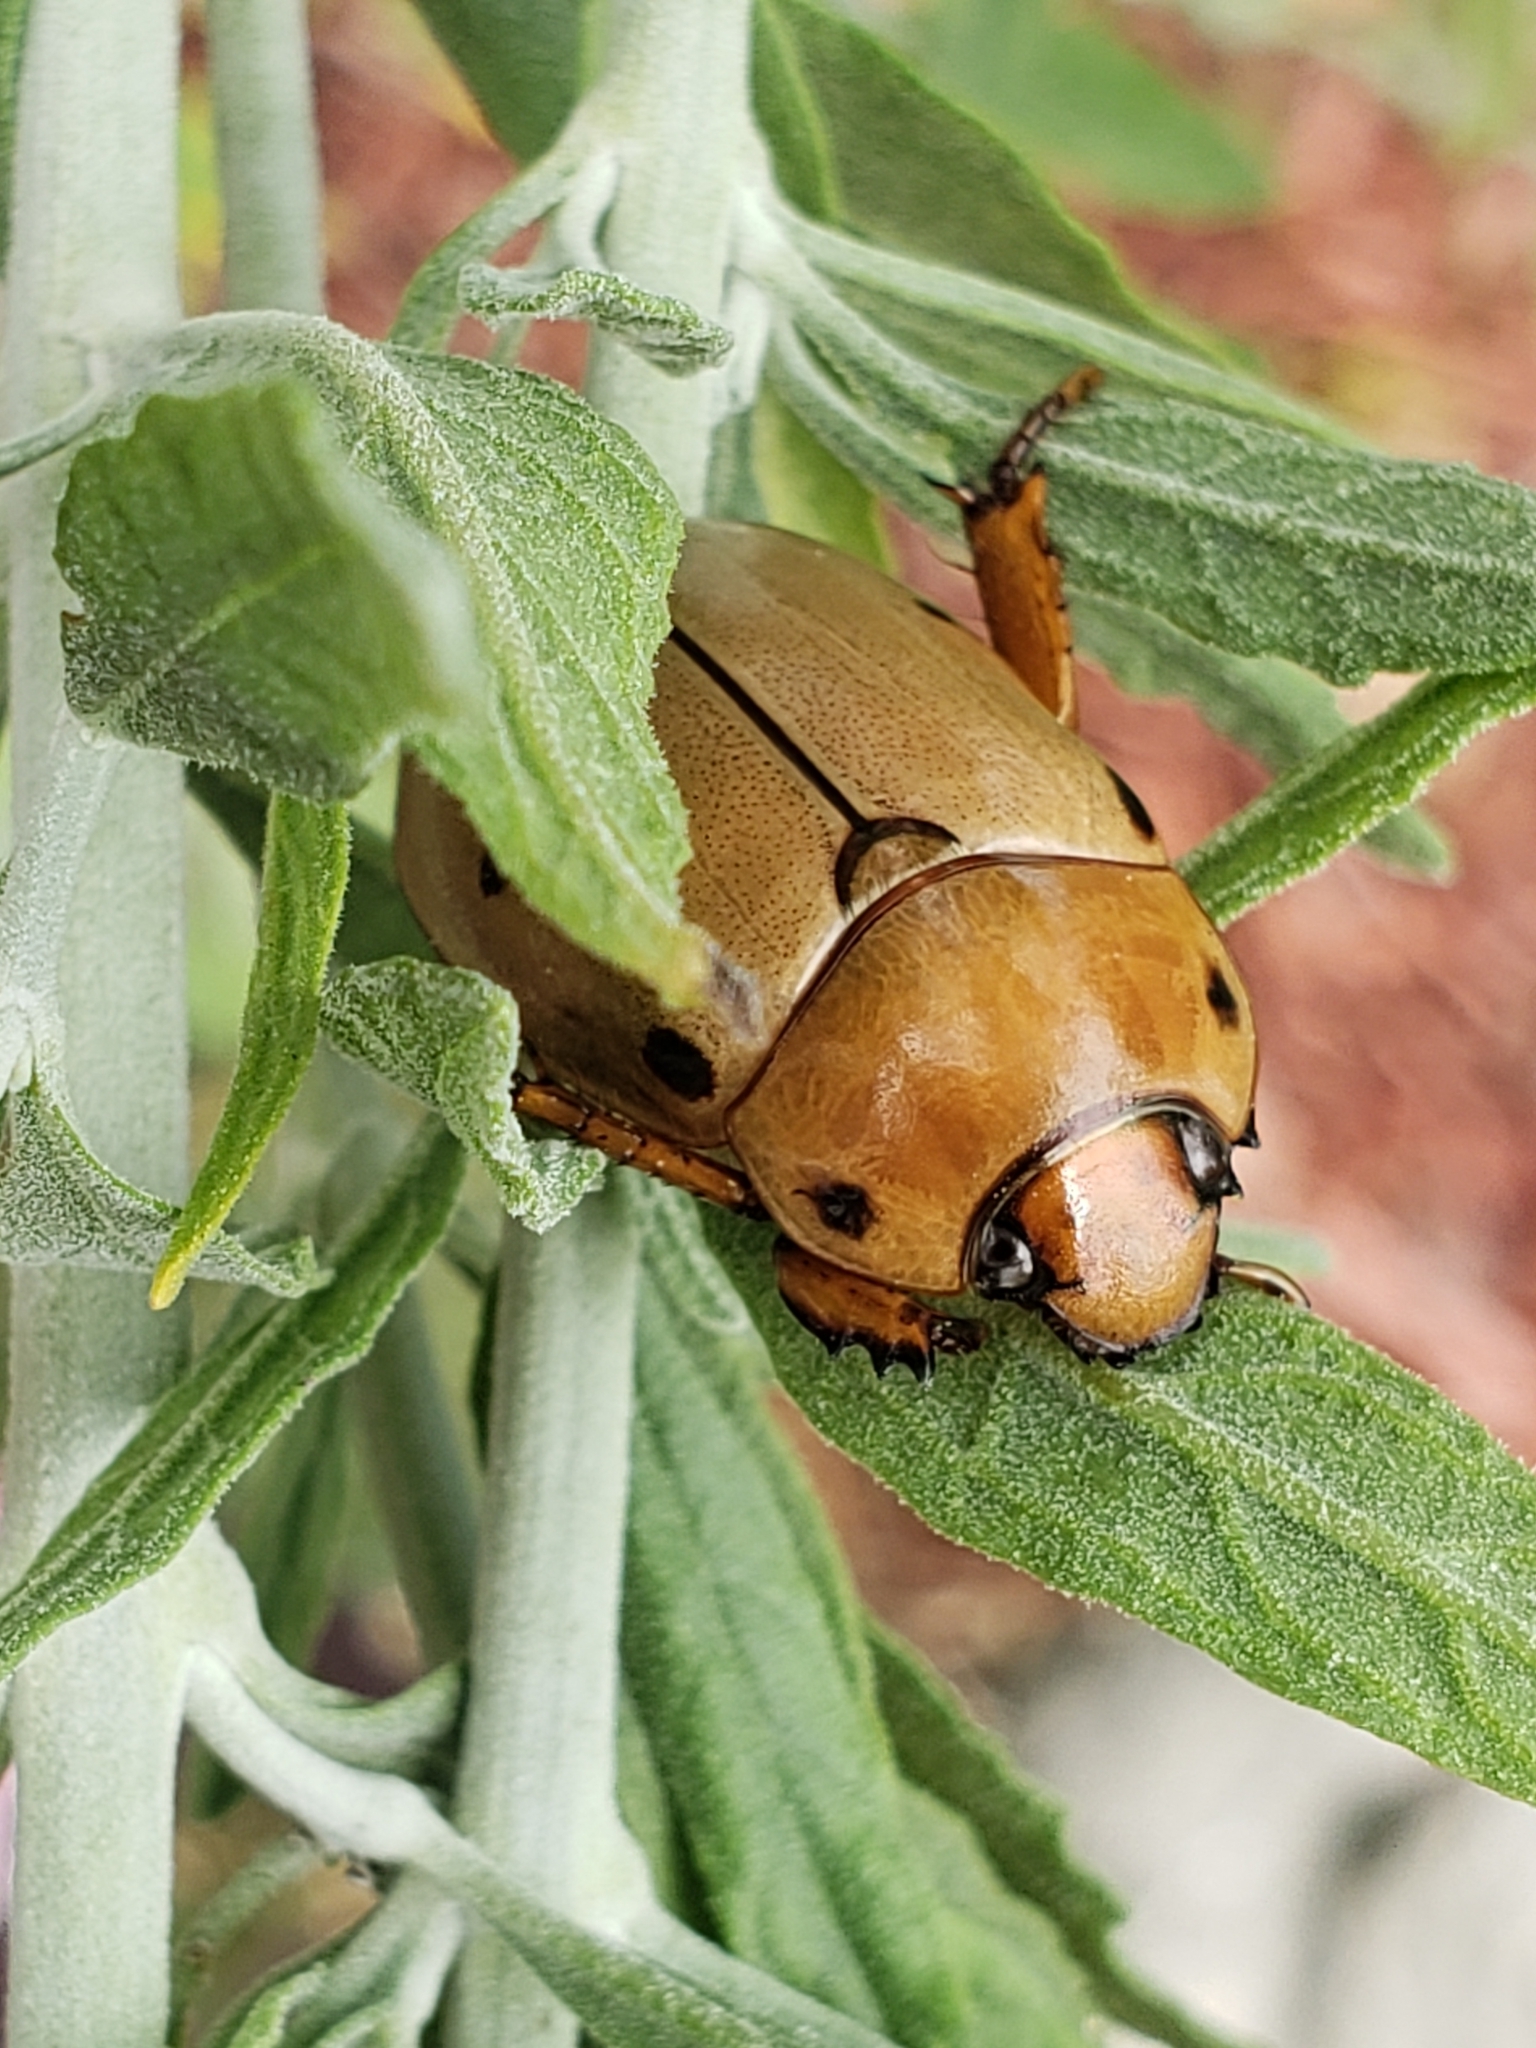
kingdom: Animalia
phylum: Arthropoda
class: Insecta
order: Coleoptera
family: Scarabaeidae
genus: Pelidnota
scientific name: Pelidnota punctata
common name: Grapevine beetle
